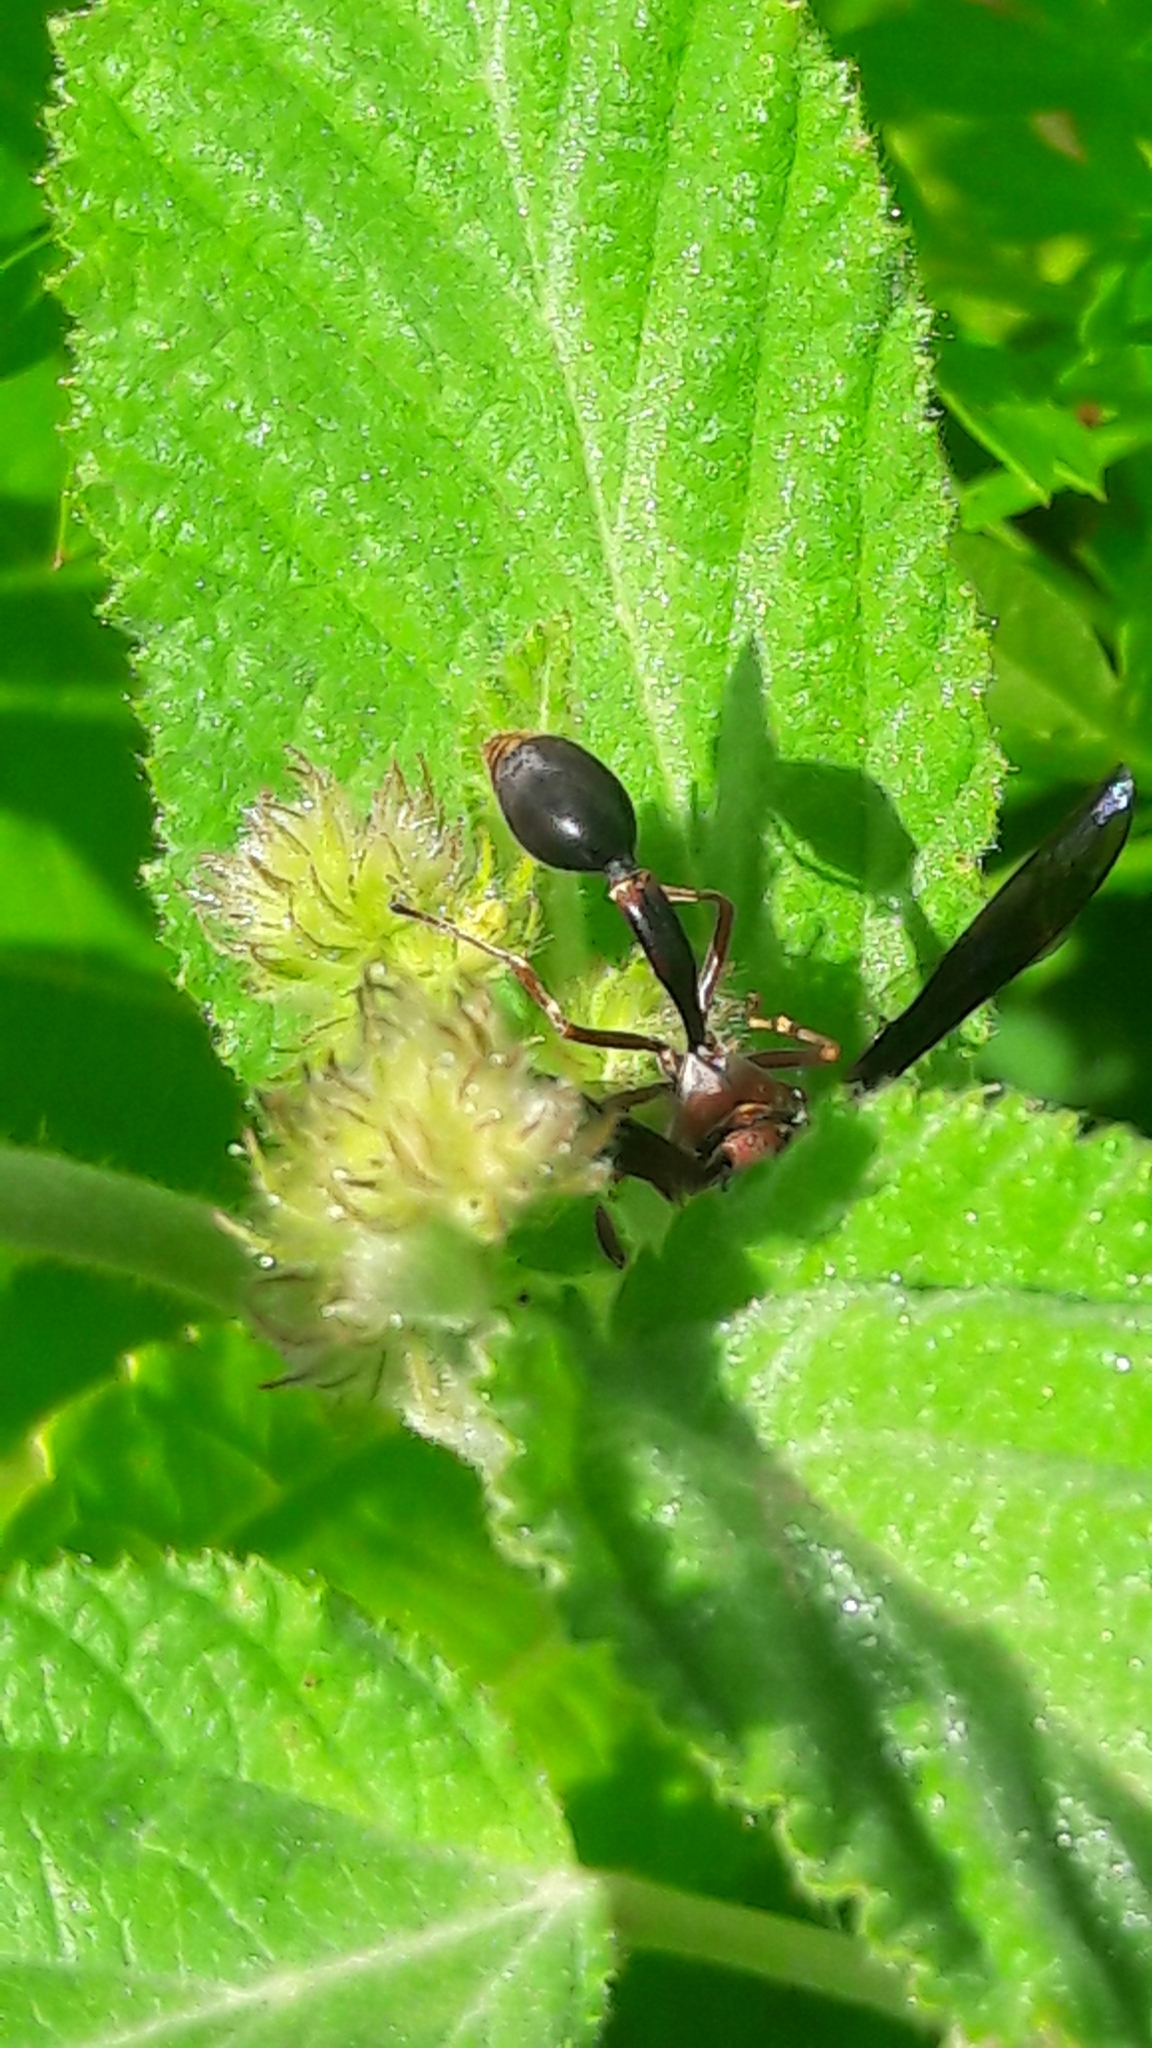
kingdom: Animalia
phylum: Arthropoda
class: Insecta
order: Hymenoptera
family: Eumenidae
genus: Zeta
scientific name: Zeta argillaceum
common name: Potter wasp
